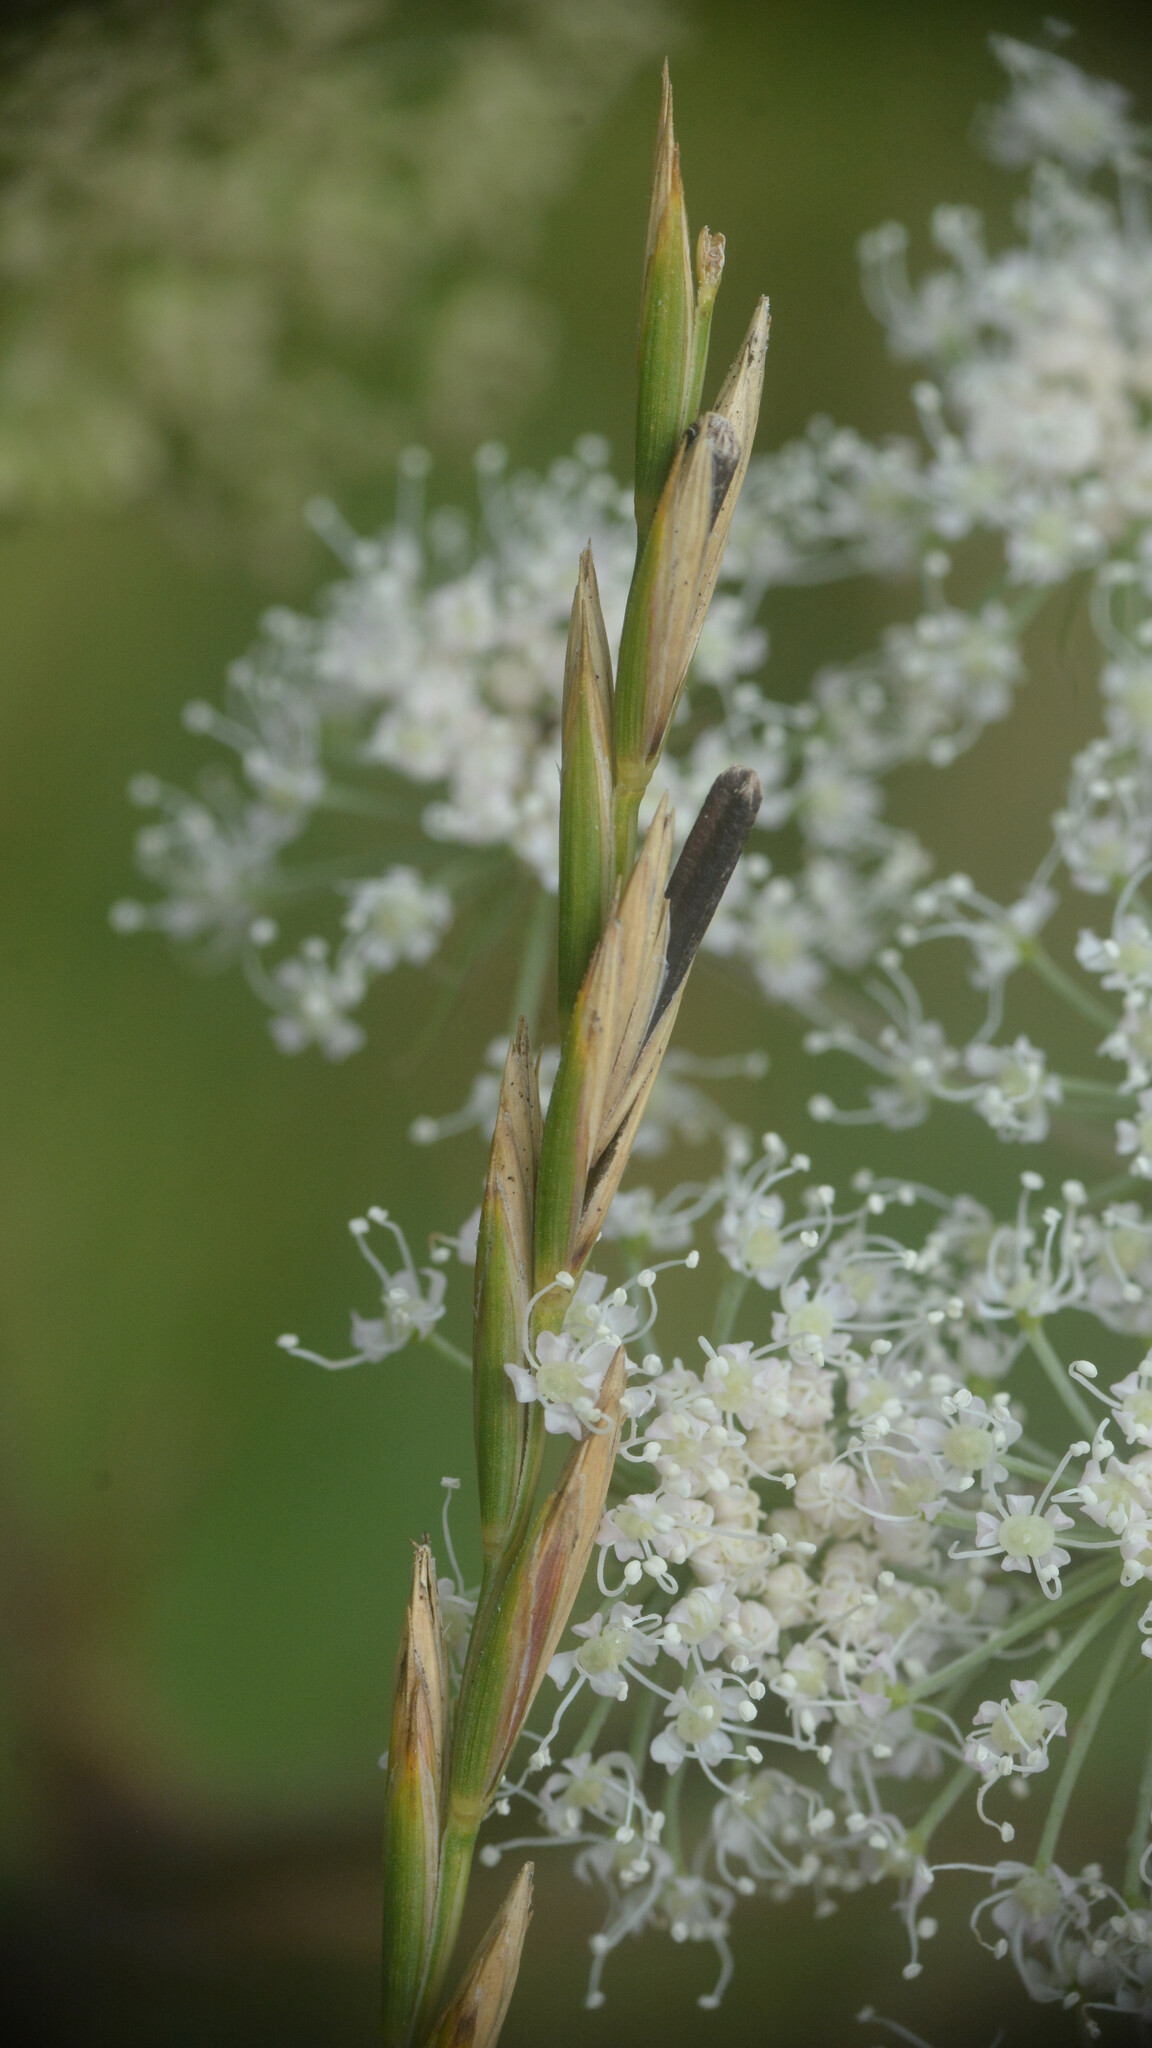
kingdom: Fungi
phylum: Ascomycota
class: Sordariomycetes
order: Hypocreales
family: Clavicipitaceae
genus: Claviceps
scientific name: Claviceps purpurea
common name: Rye ergot
